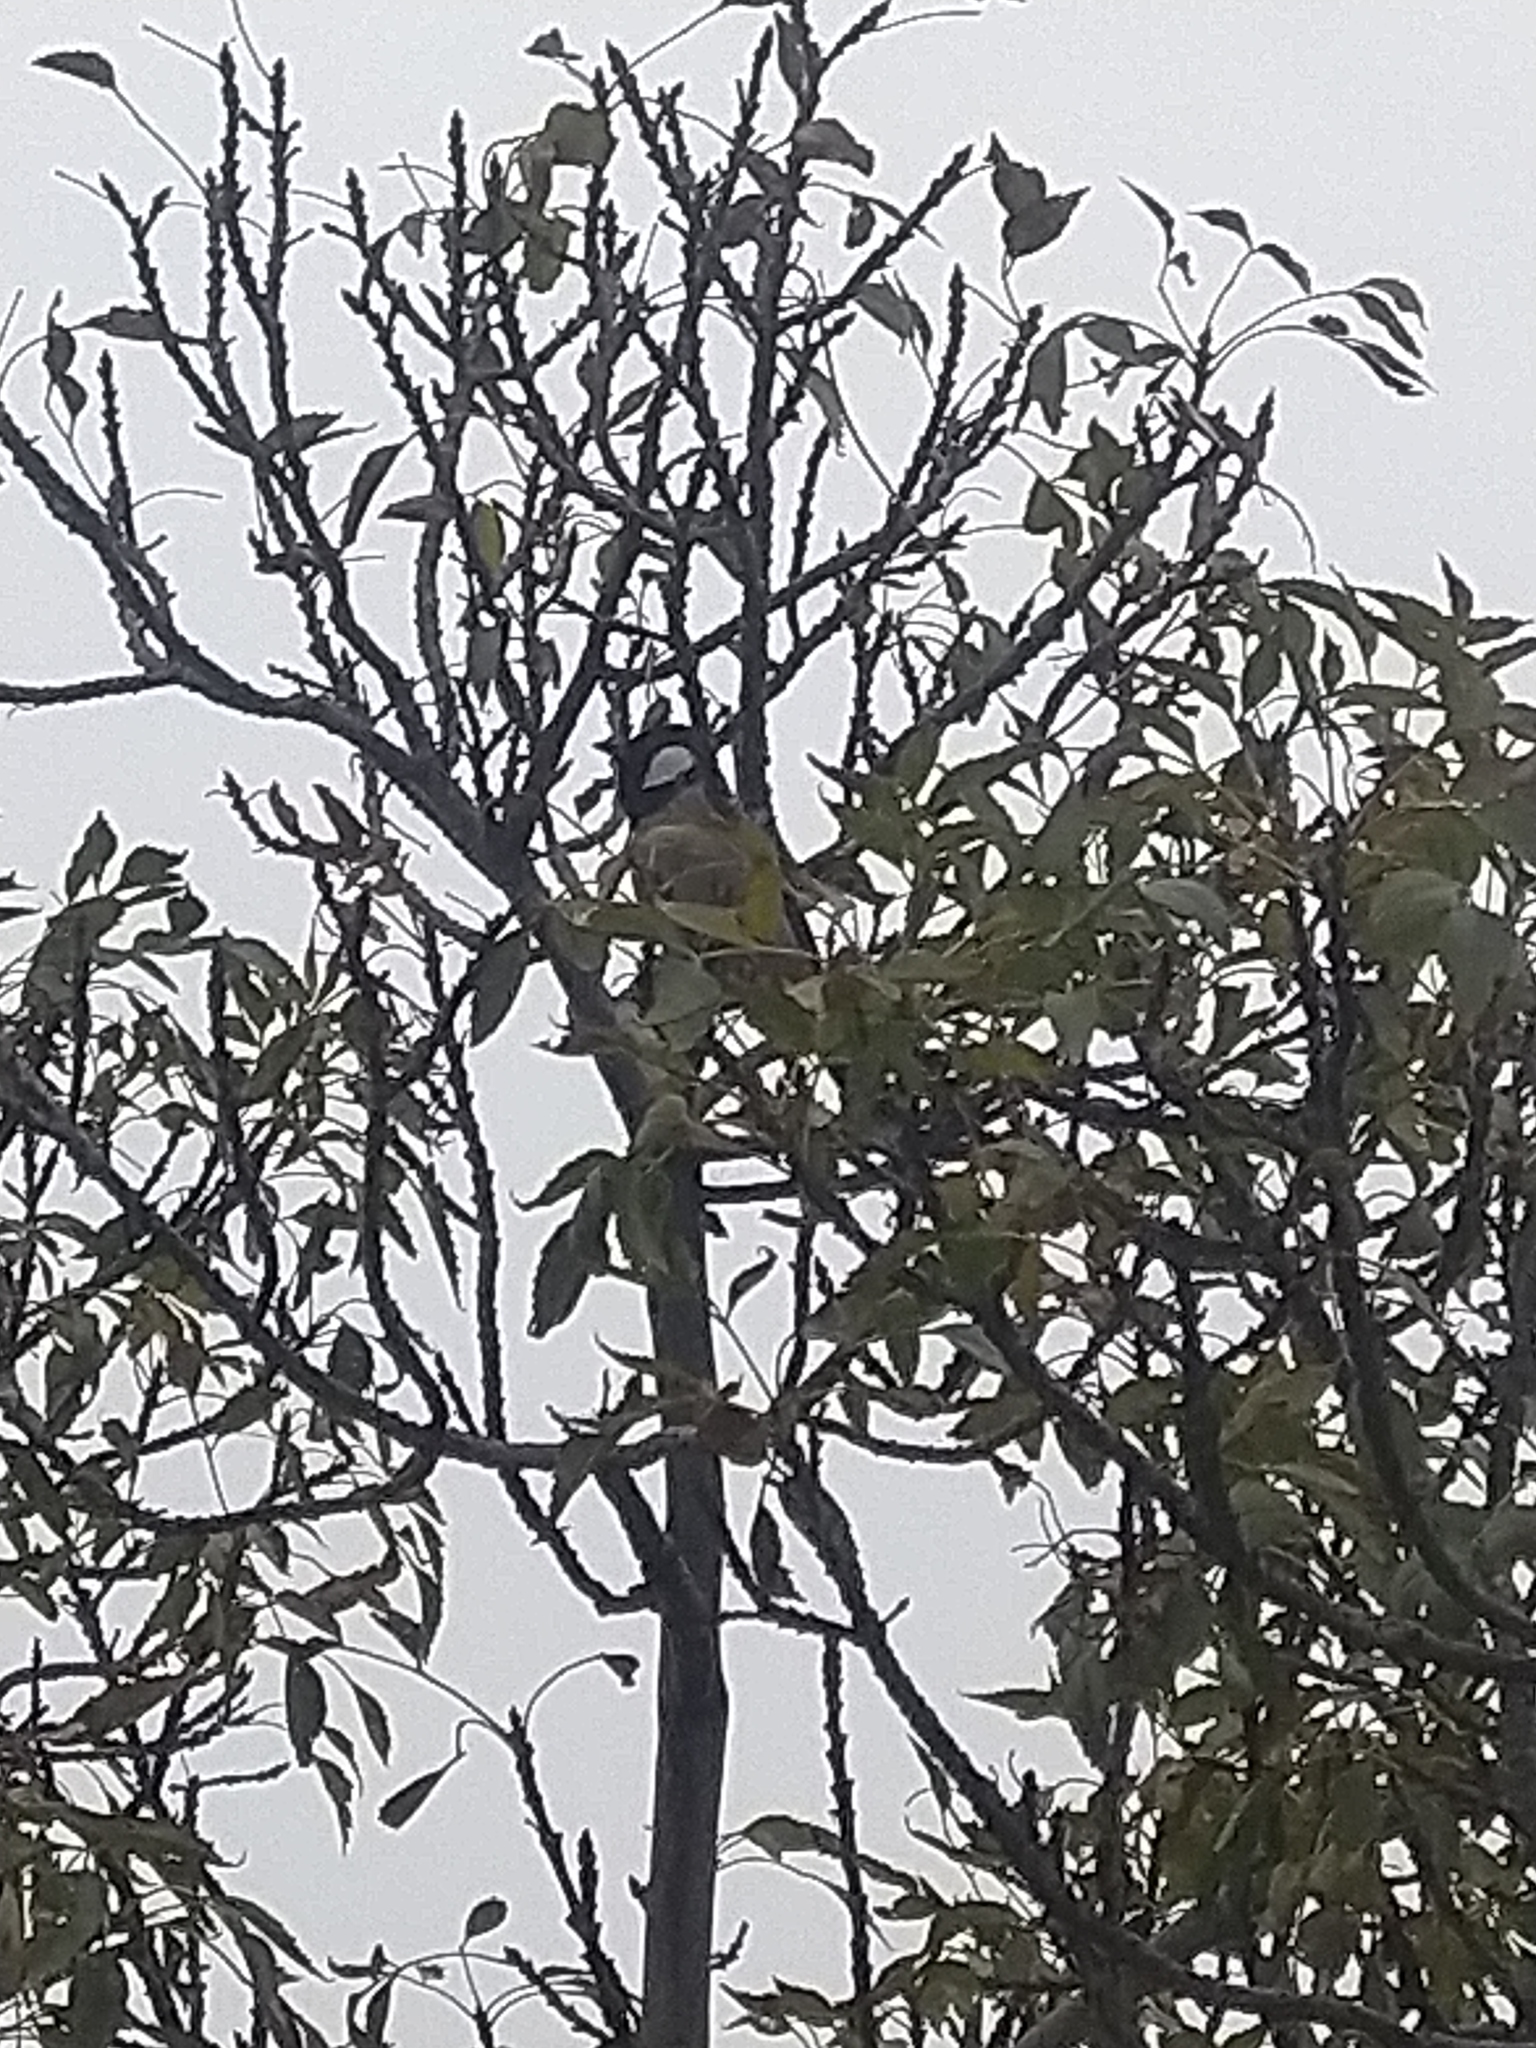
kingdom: Animalia
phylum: Chordata
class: Aves
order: Passeriformes
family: Pycnonotidae
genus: Pycnonotus
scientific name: Pycnonotus leucotis
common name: White-eared bulbul
